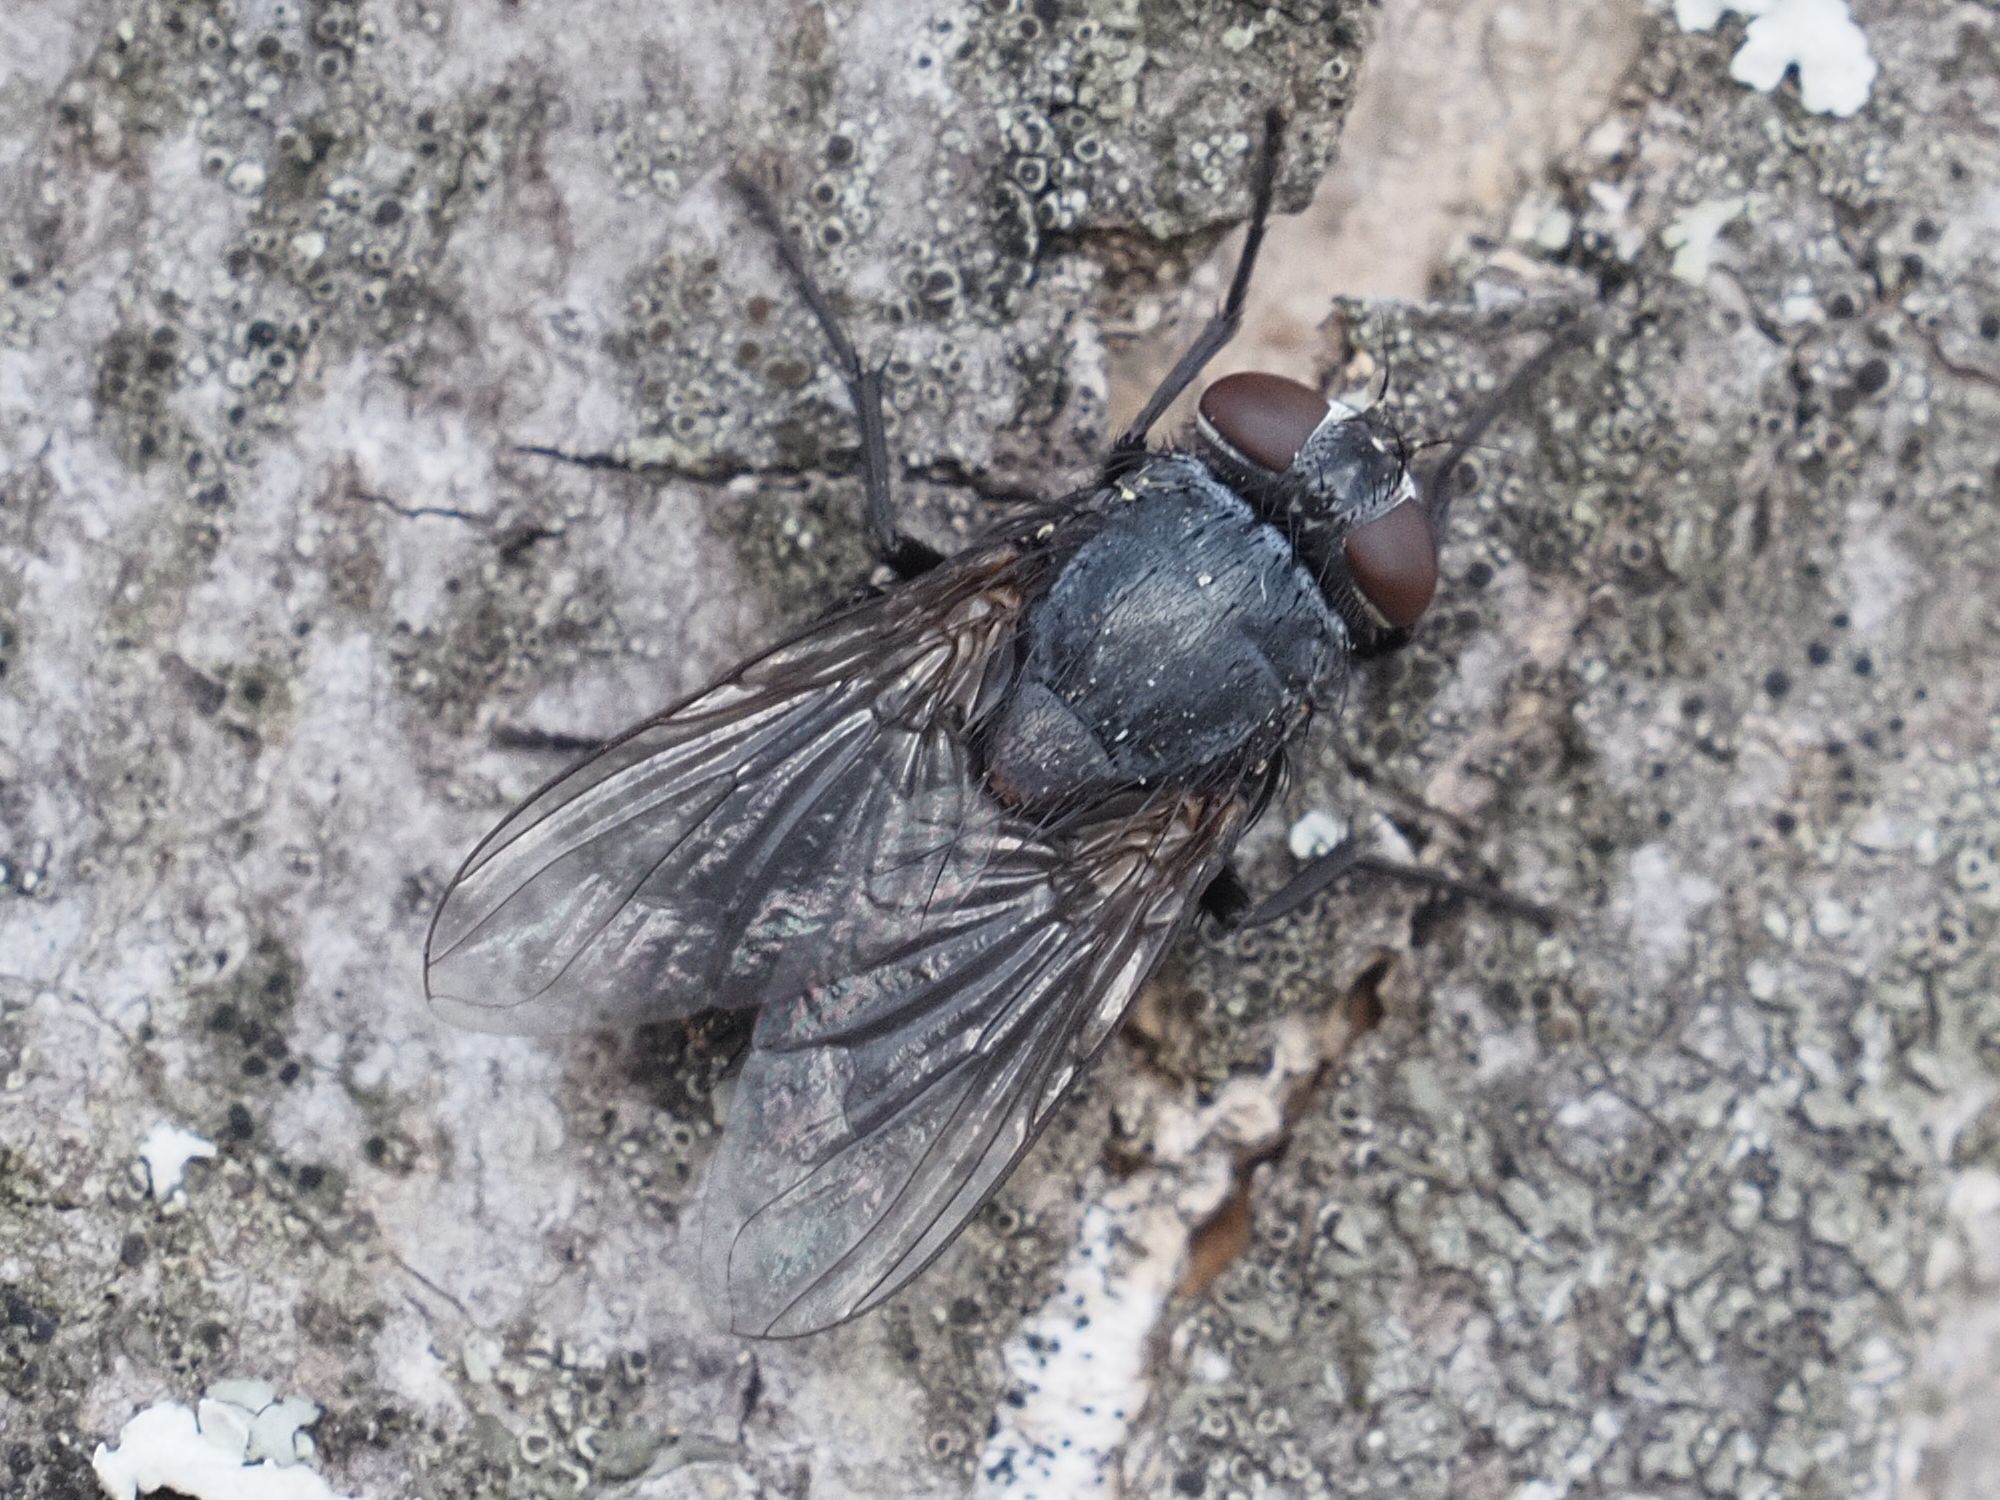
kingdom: Animalia
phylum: Arthropoda
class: Insecta
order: Diptera
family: Muscidae
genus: Muscina
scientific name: Muscina pascuorum
